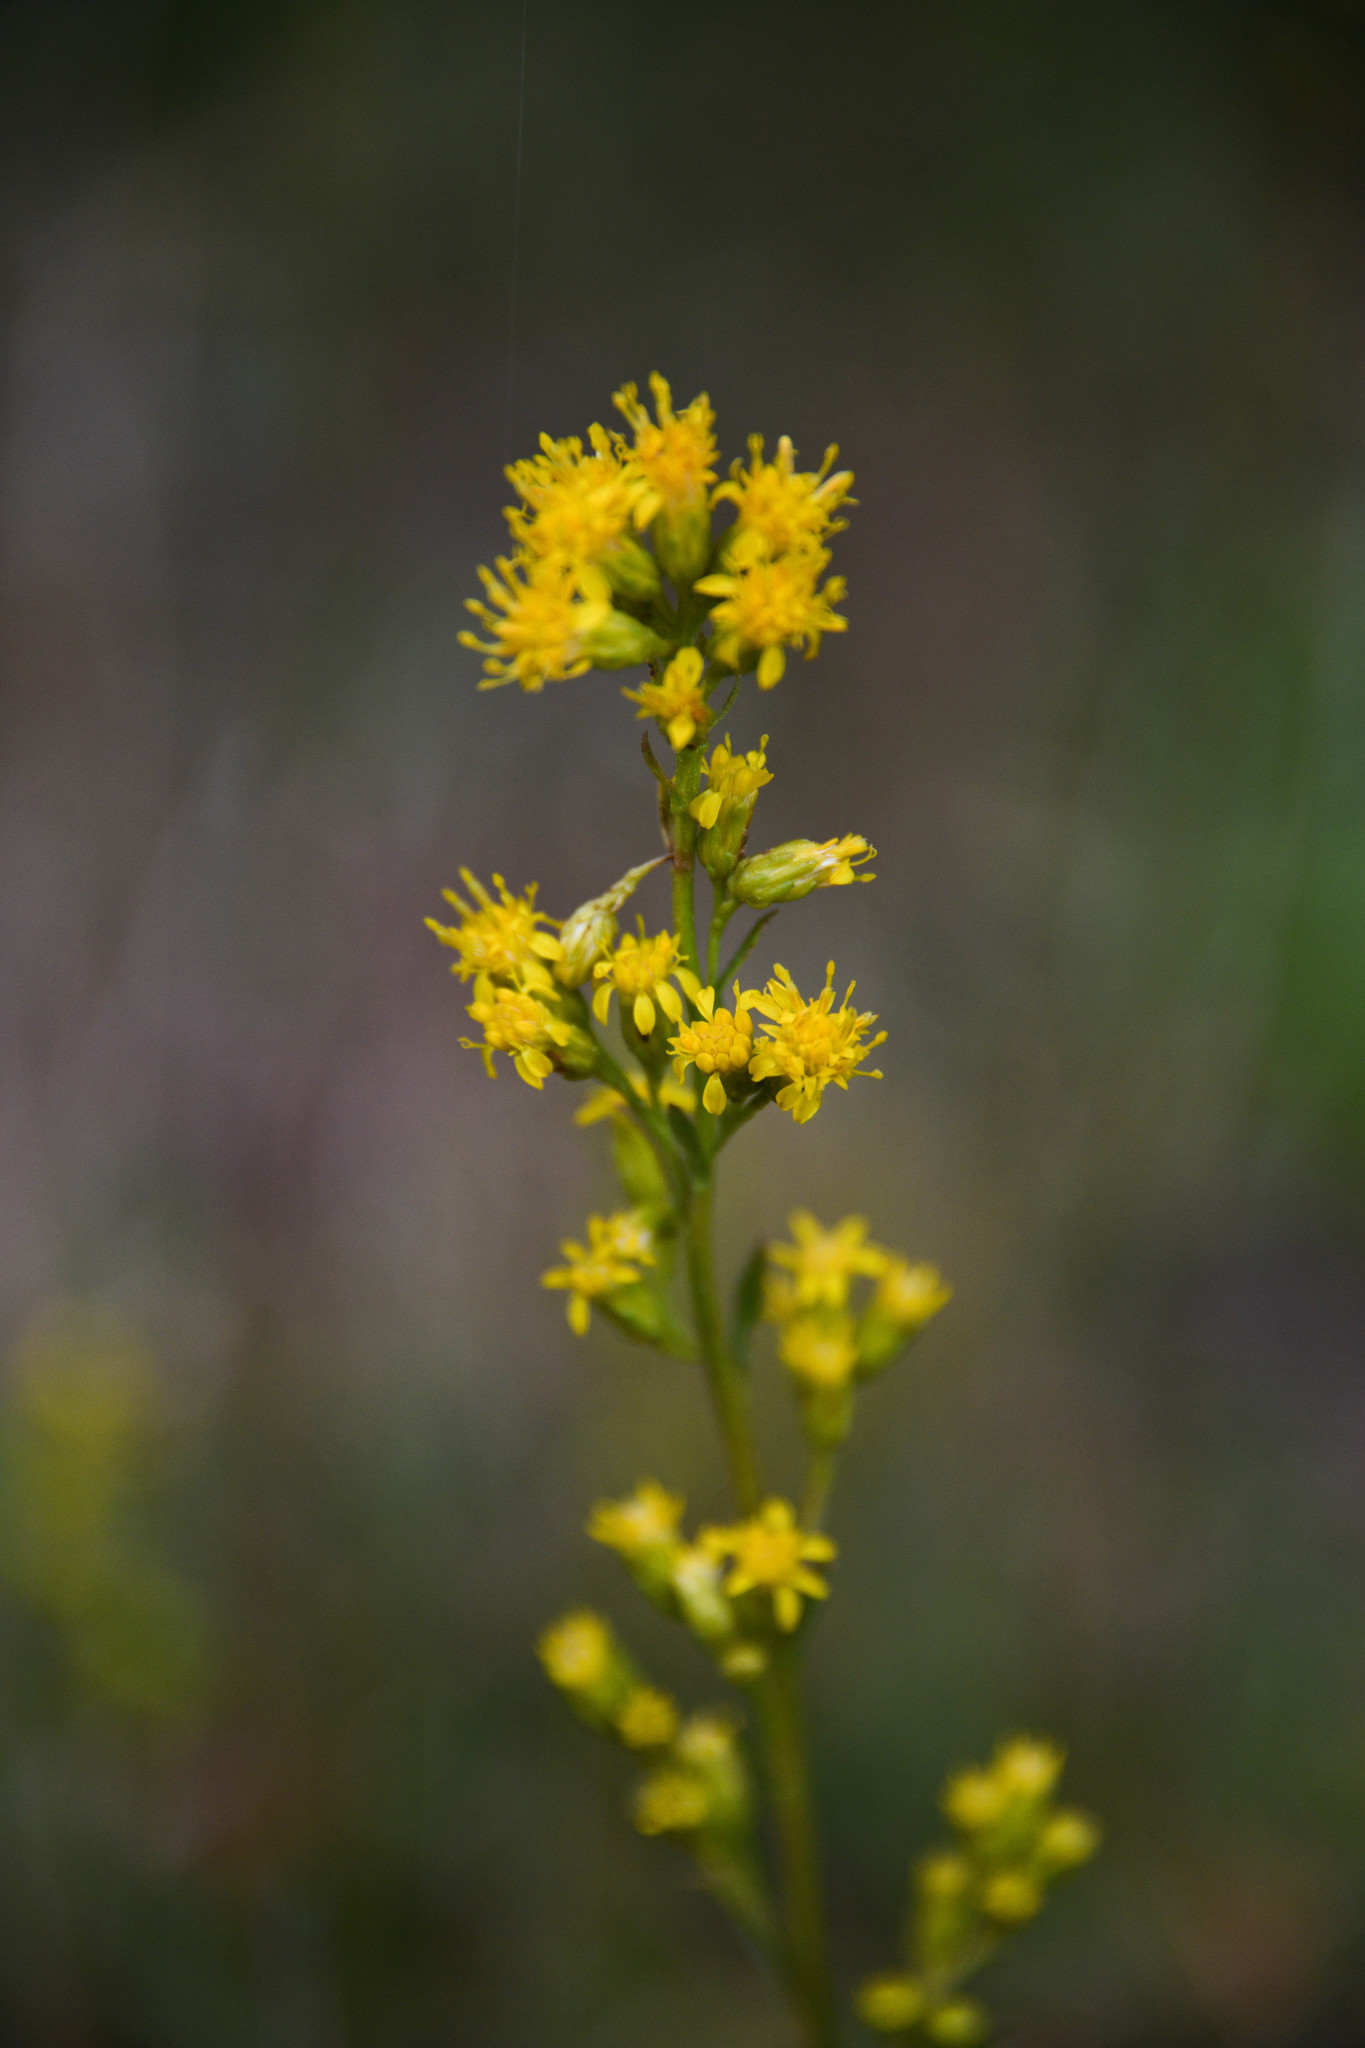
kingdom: Plantae
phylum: Tracheophyta
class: Magnoliopsida
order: Asterales
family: Asteraceae
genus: Solidago
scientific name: Solidago californica
